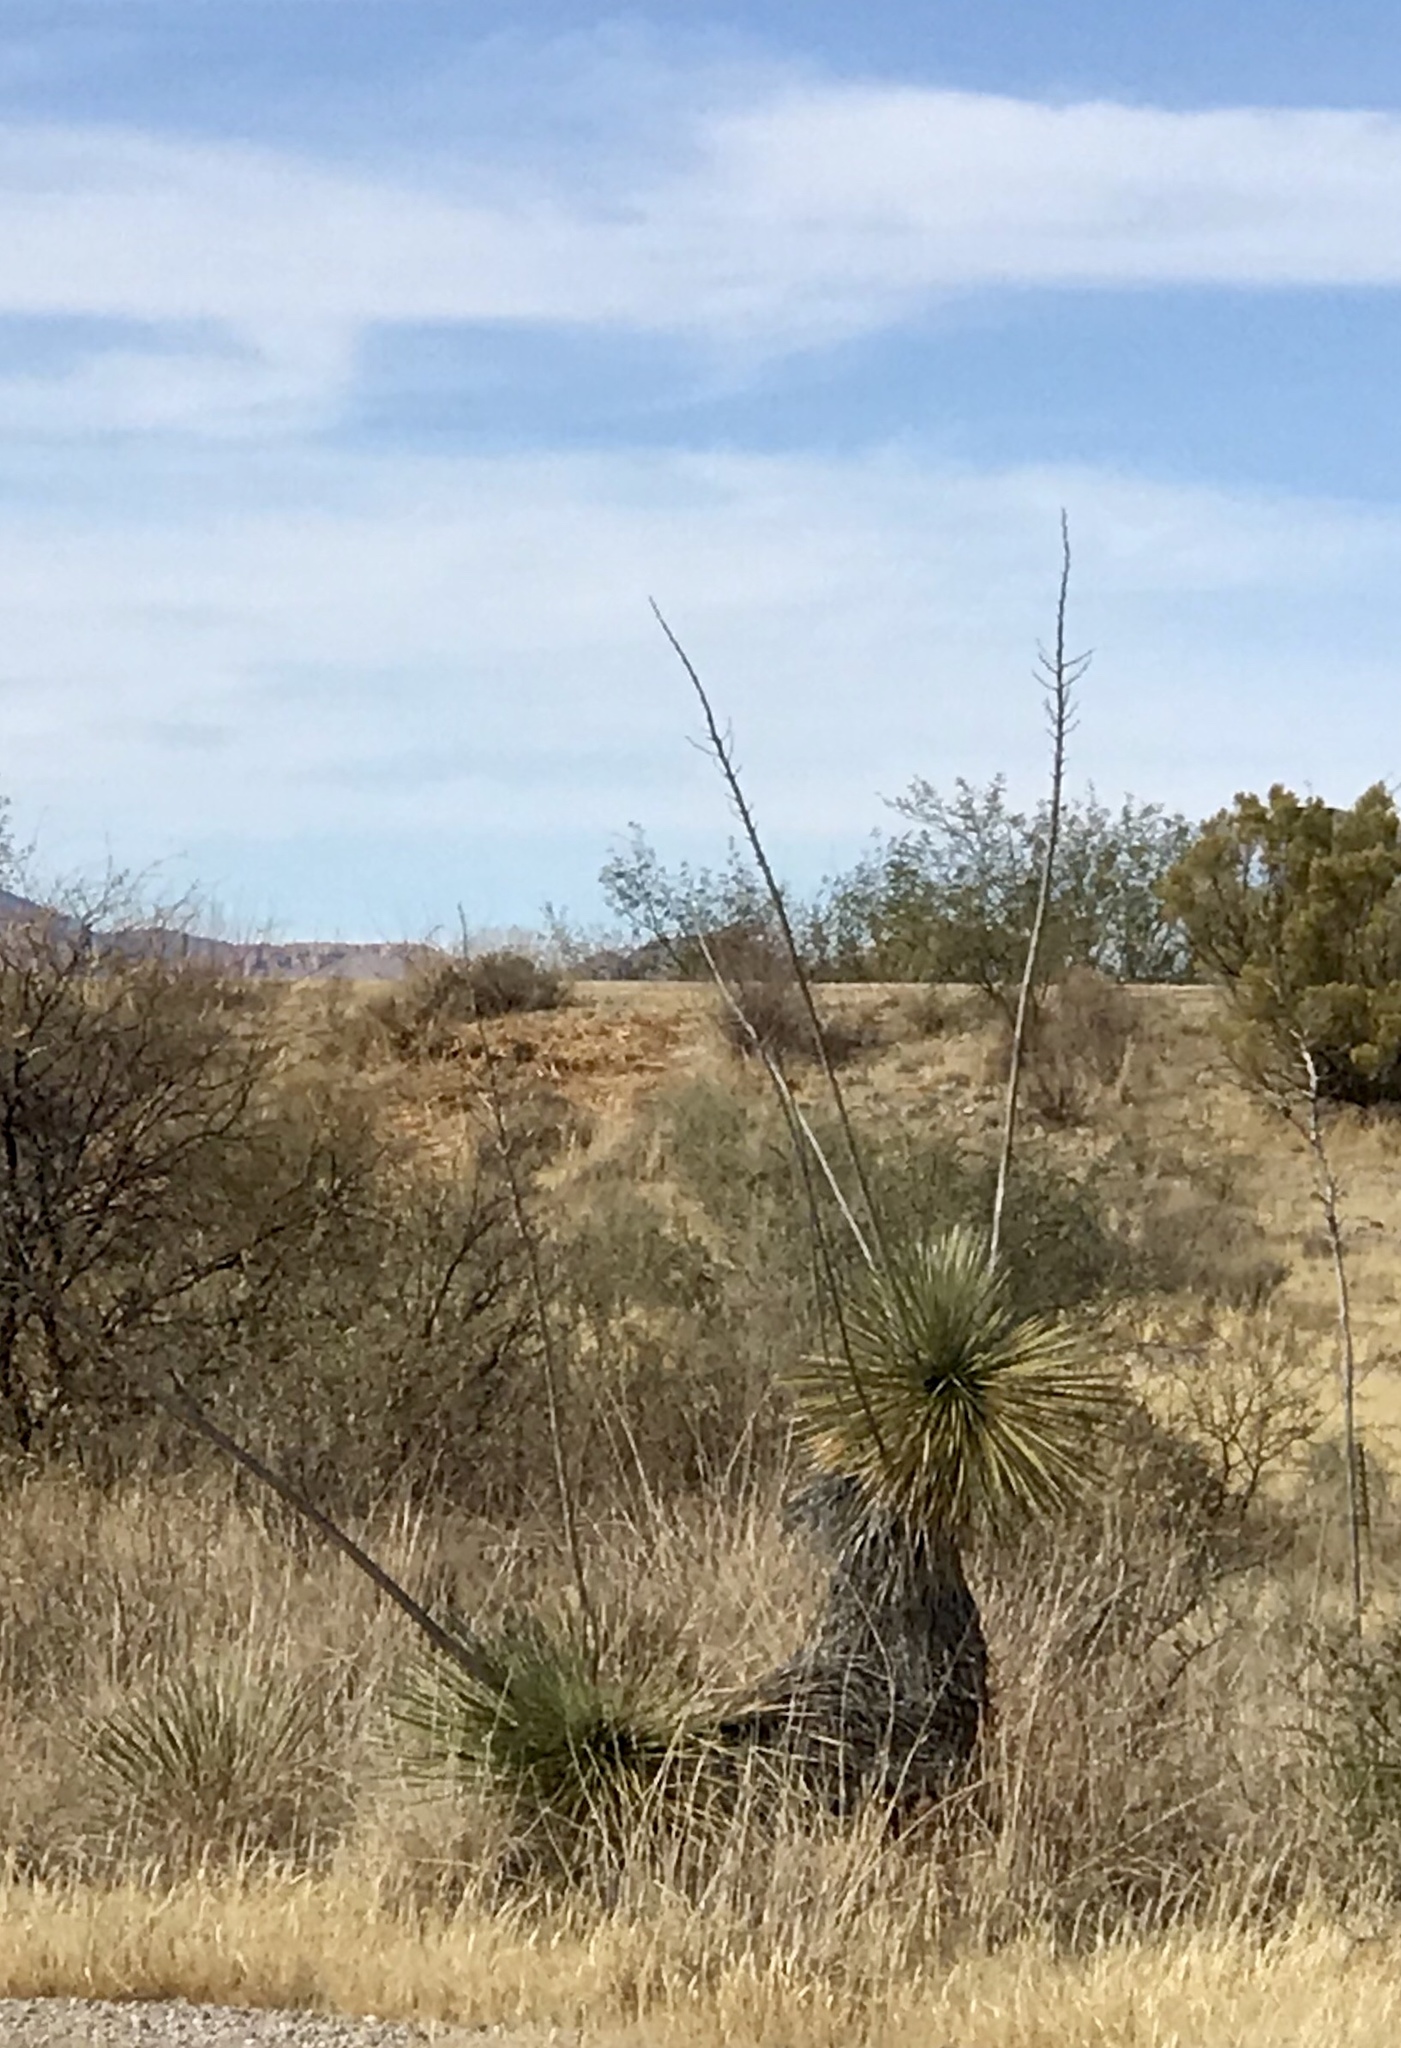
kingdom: Plantae
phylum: Tracheophyta
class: Liliopsida
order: Asparagales
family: Asparagaceae
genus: Yucca
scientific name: Yucca elata
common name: Palmella
